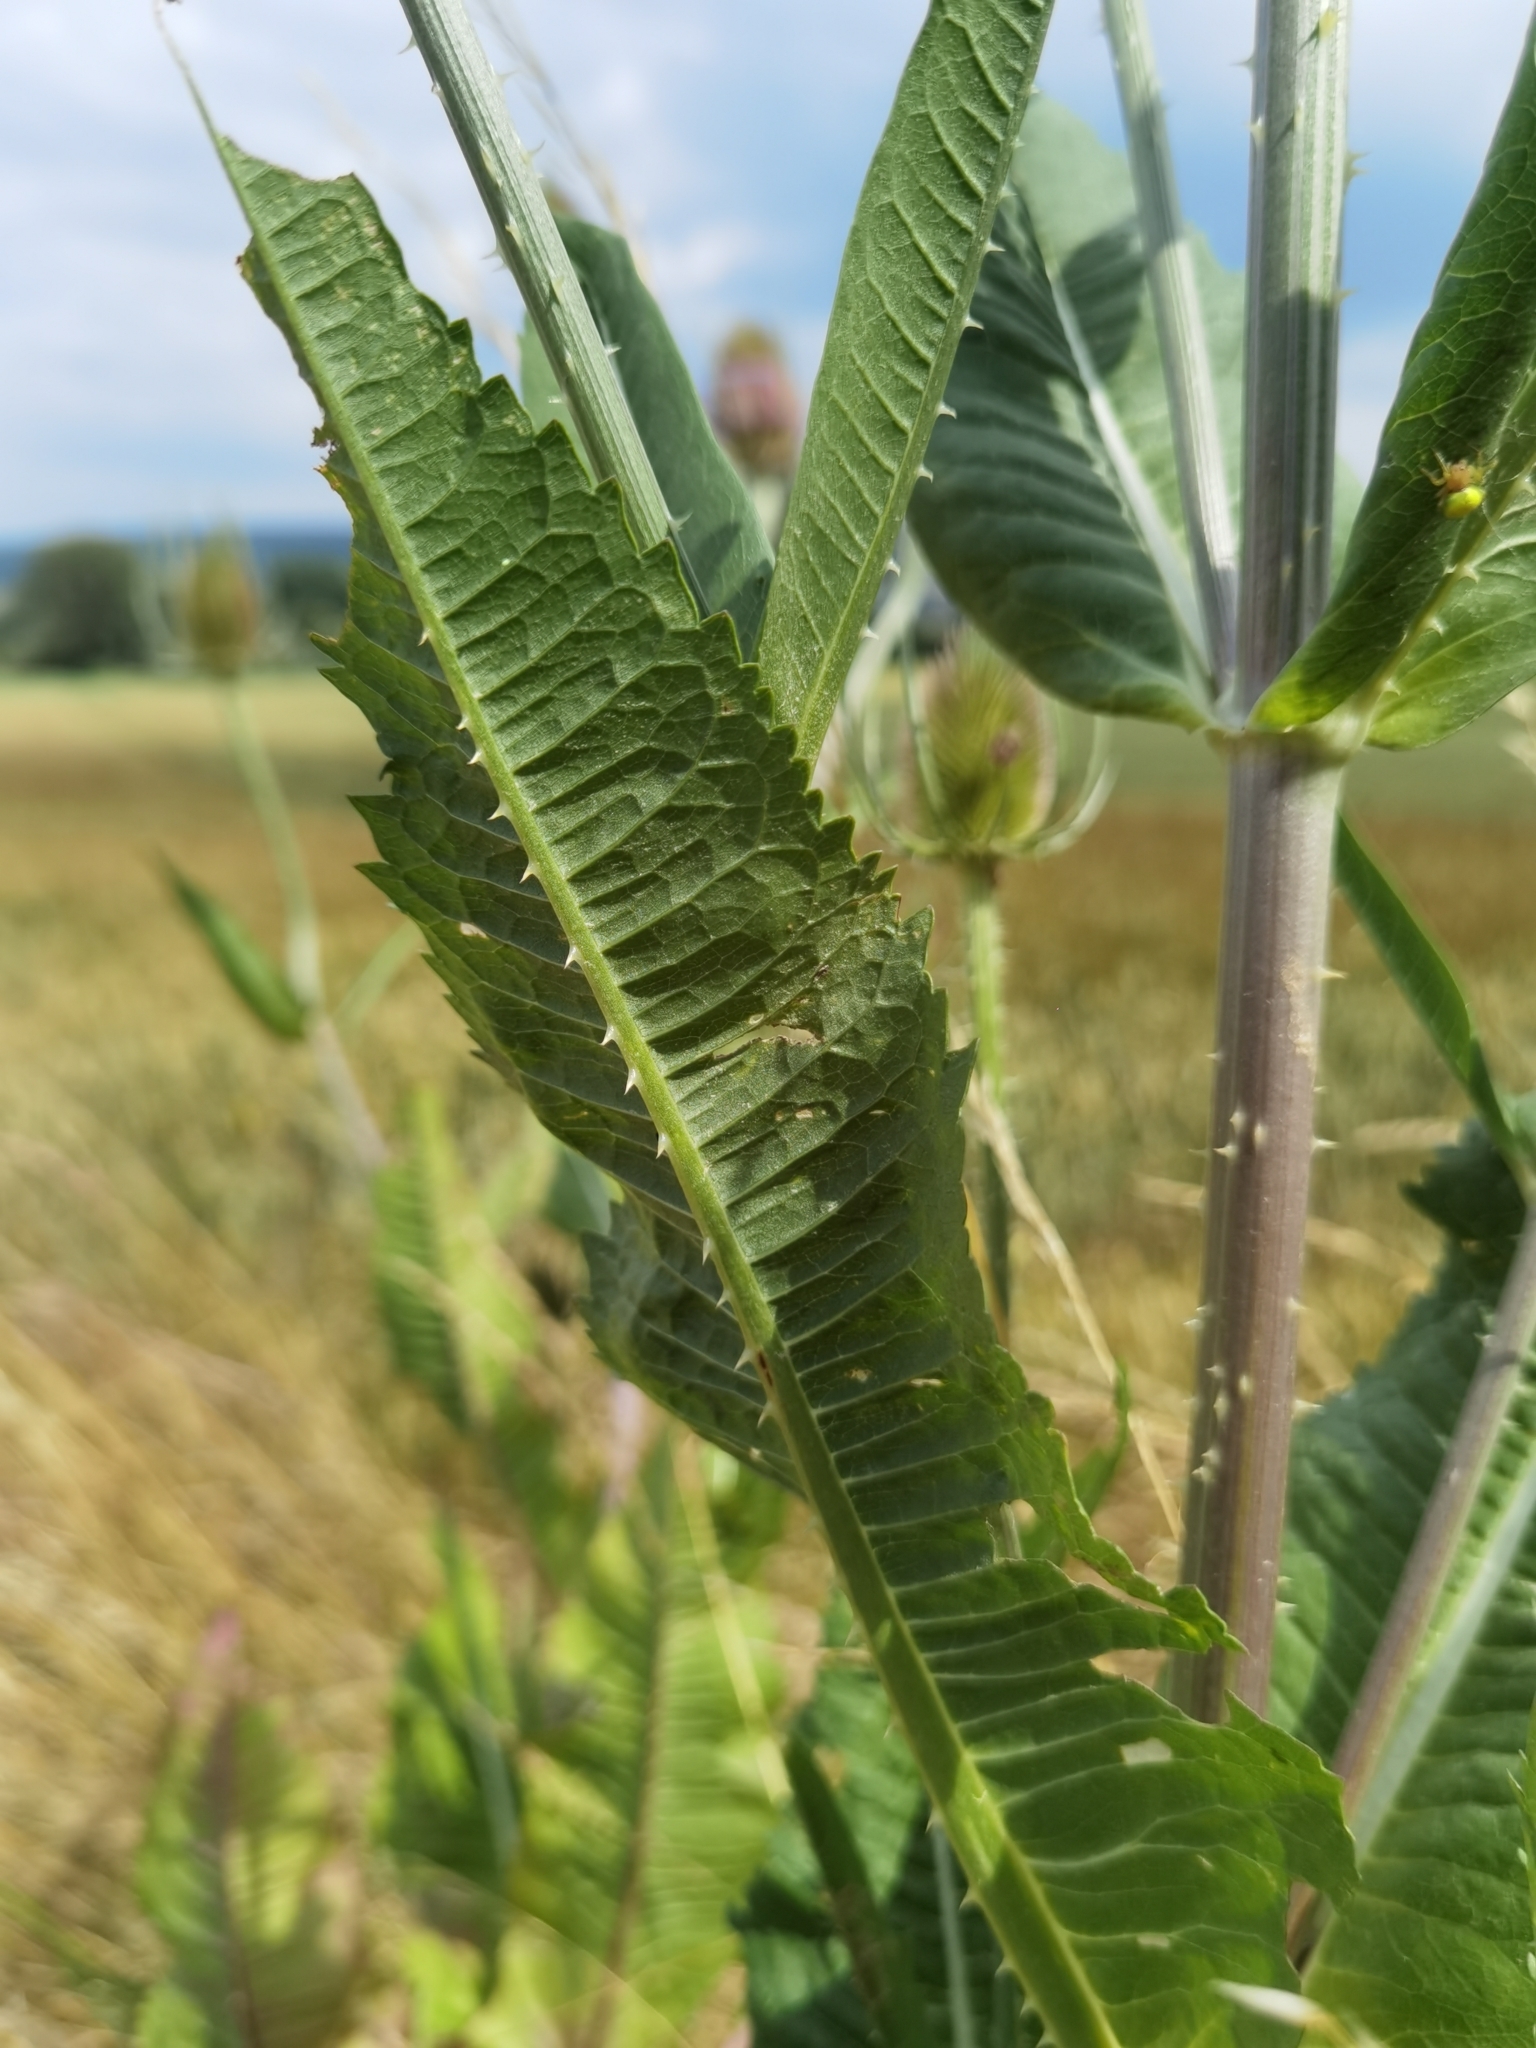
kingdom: Plantae
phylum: Tracheophyta
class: Magnoliopsida
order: Dipsacales
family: Caprifoliaceae
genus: Dipsacus
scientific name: Dipsacus fullonum
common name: Teasel
